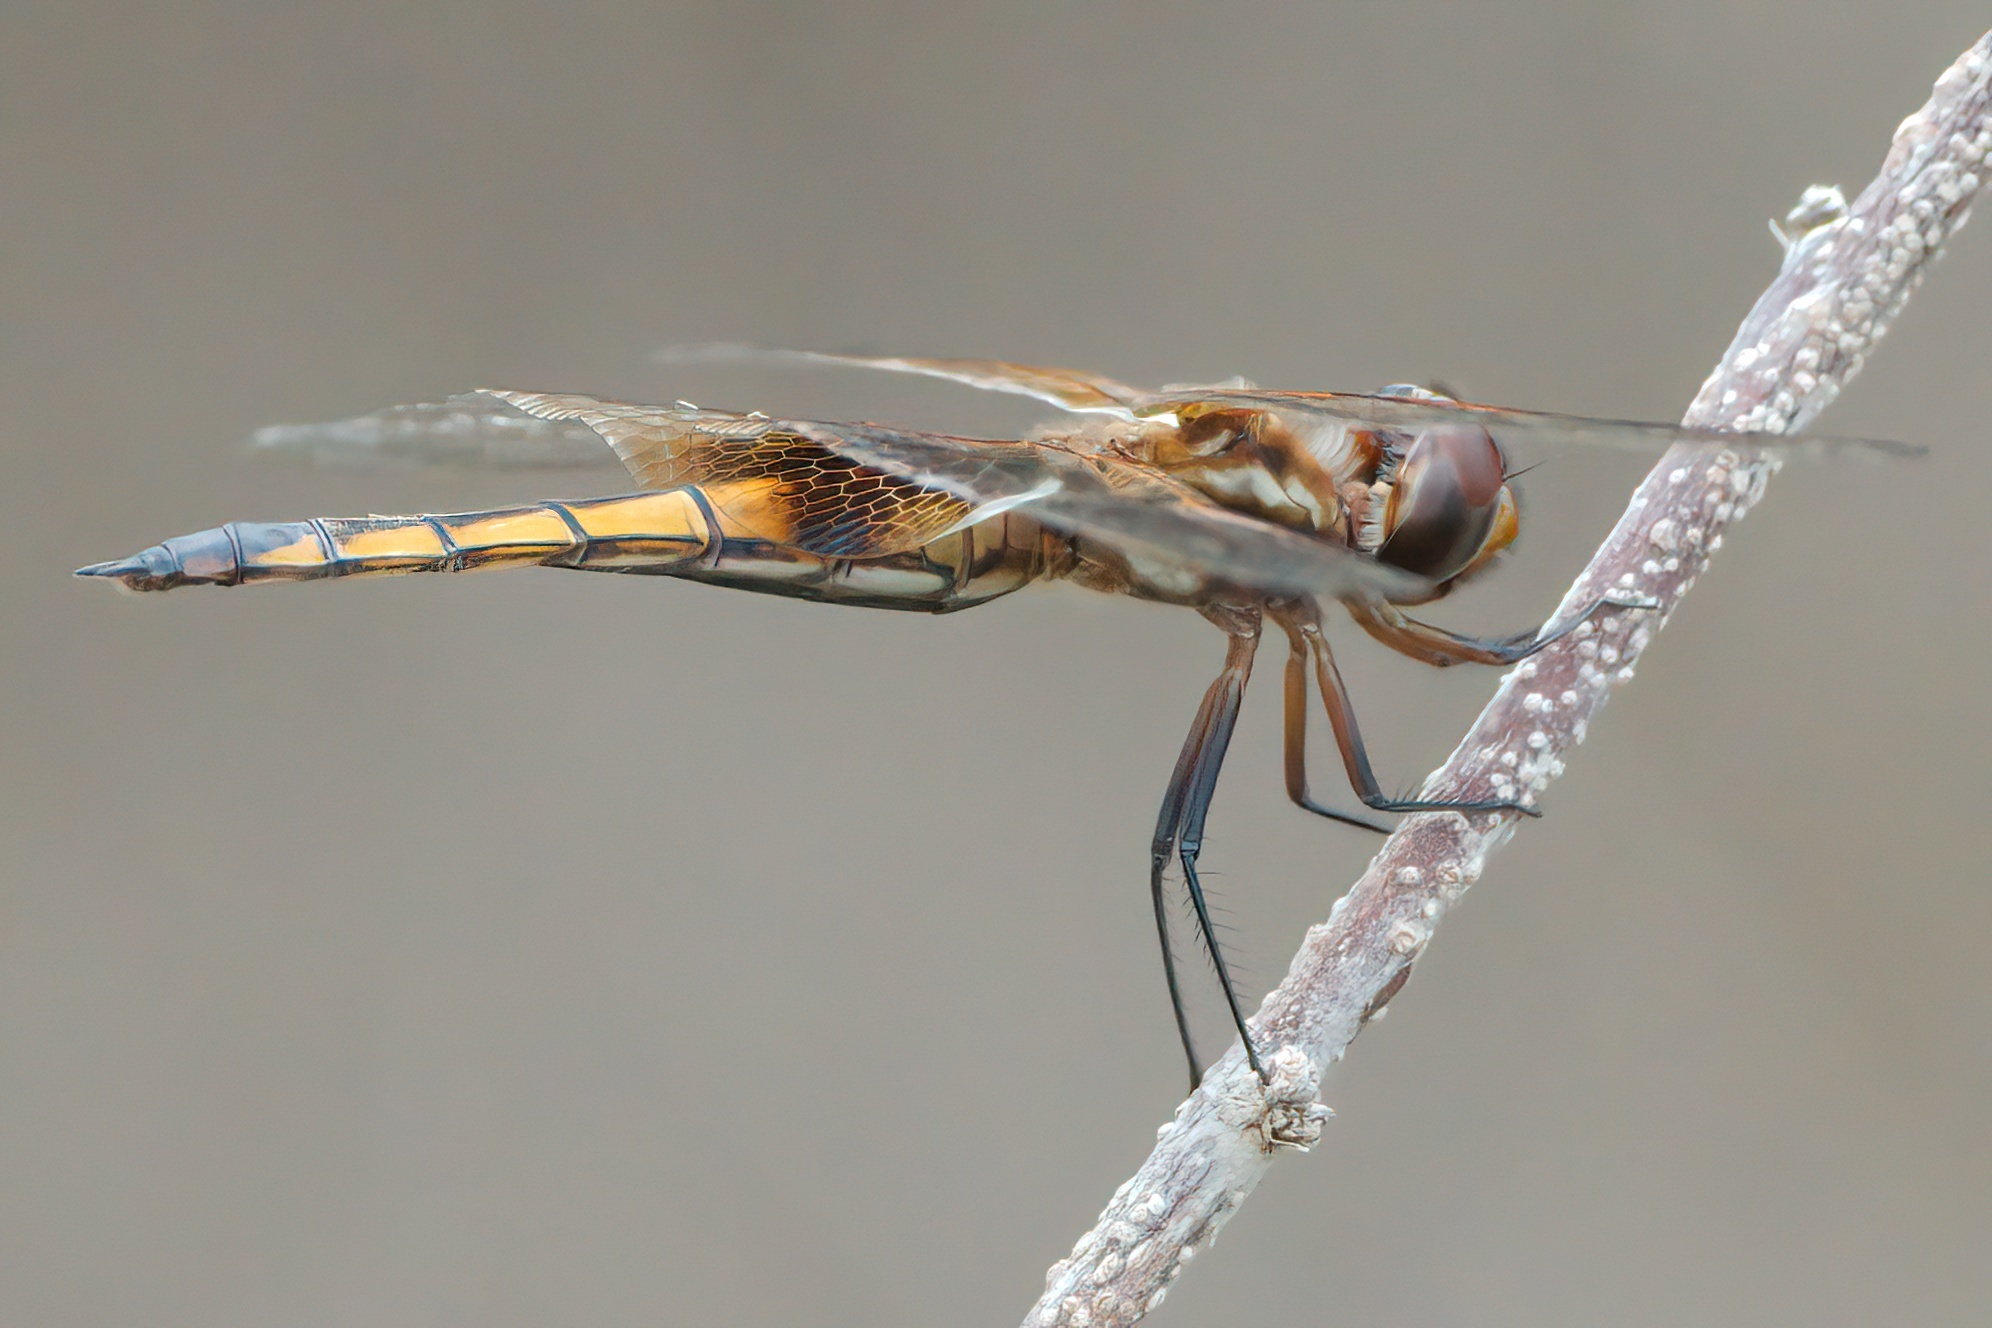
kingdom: Animalia
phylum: Arthropoda
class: Insecta
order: Odonata
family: Libellulidae
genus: Miathyria
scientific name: Miathyria marcella
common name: Hyacinth glider
